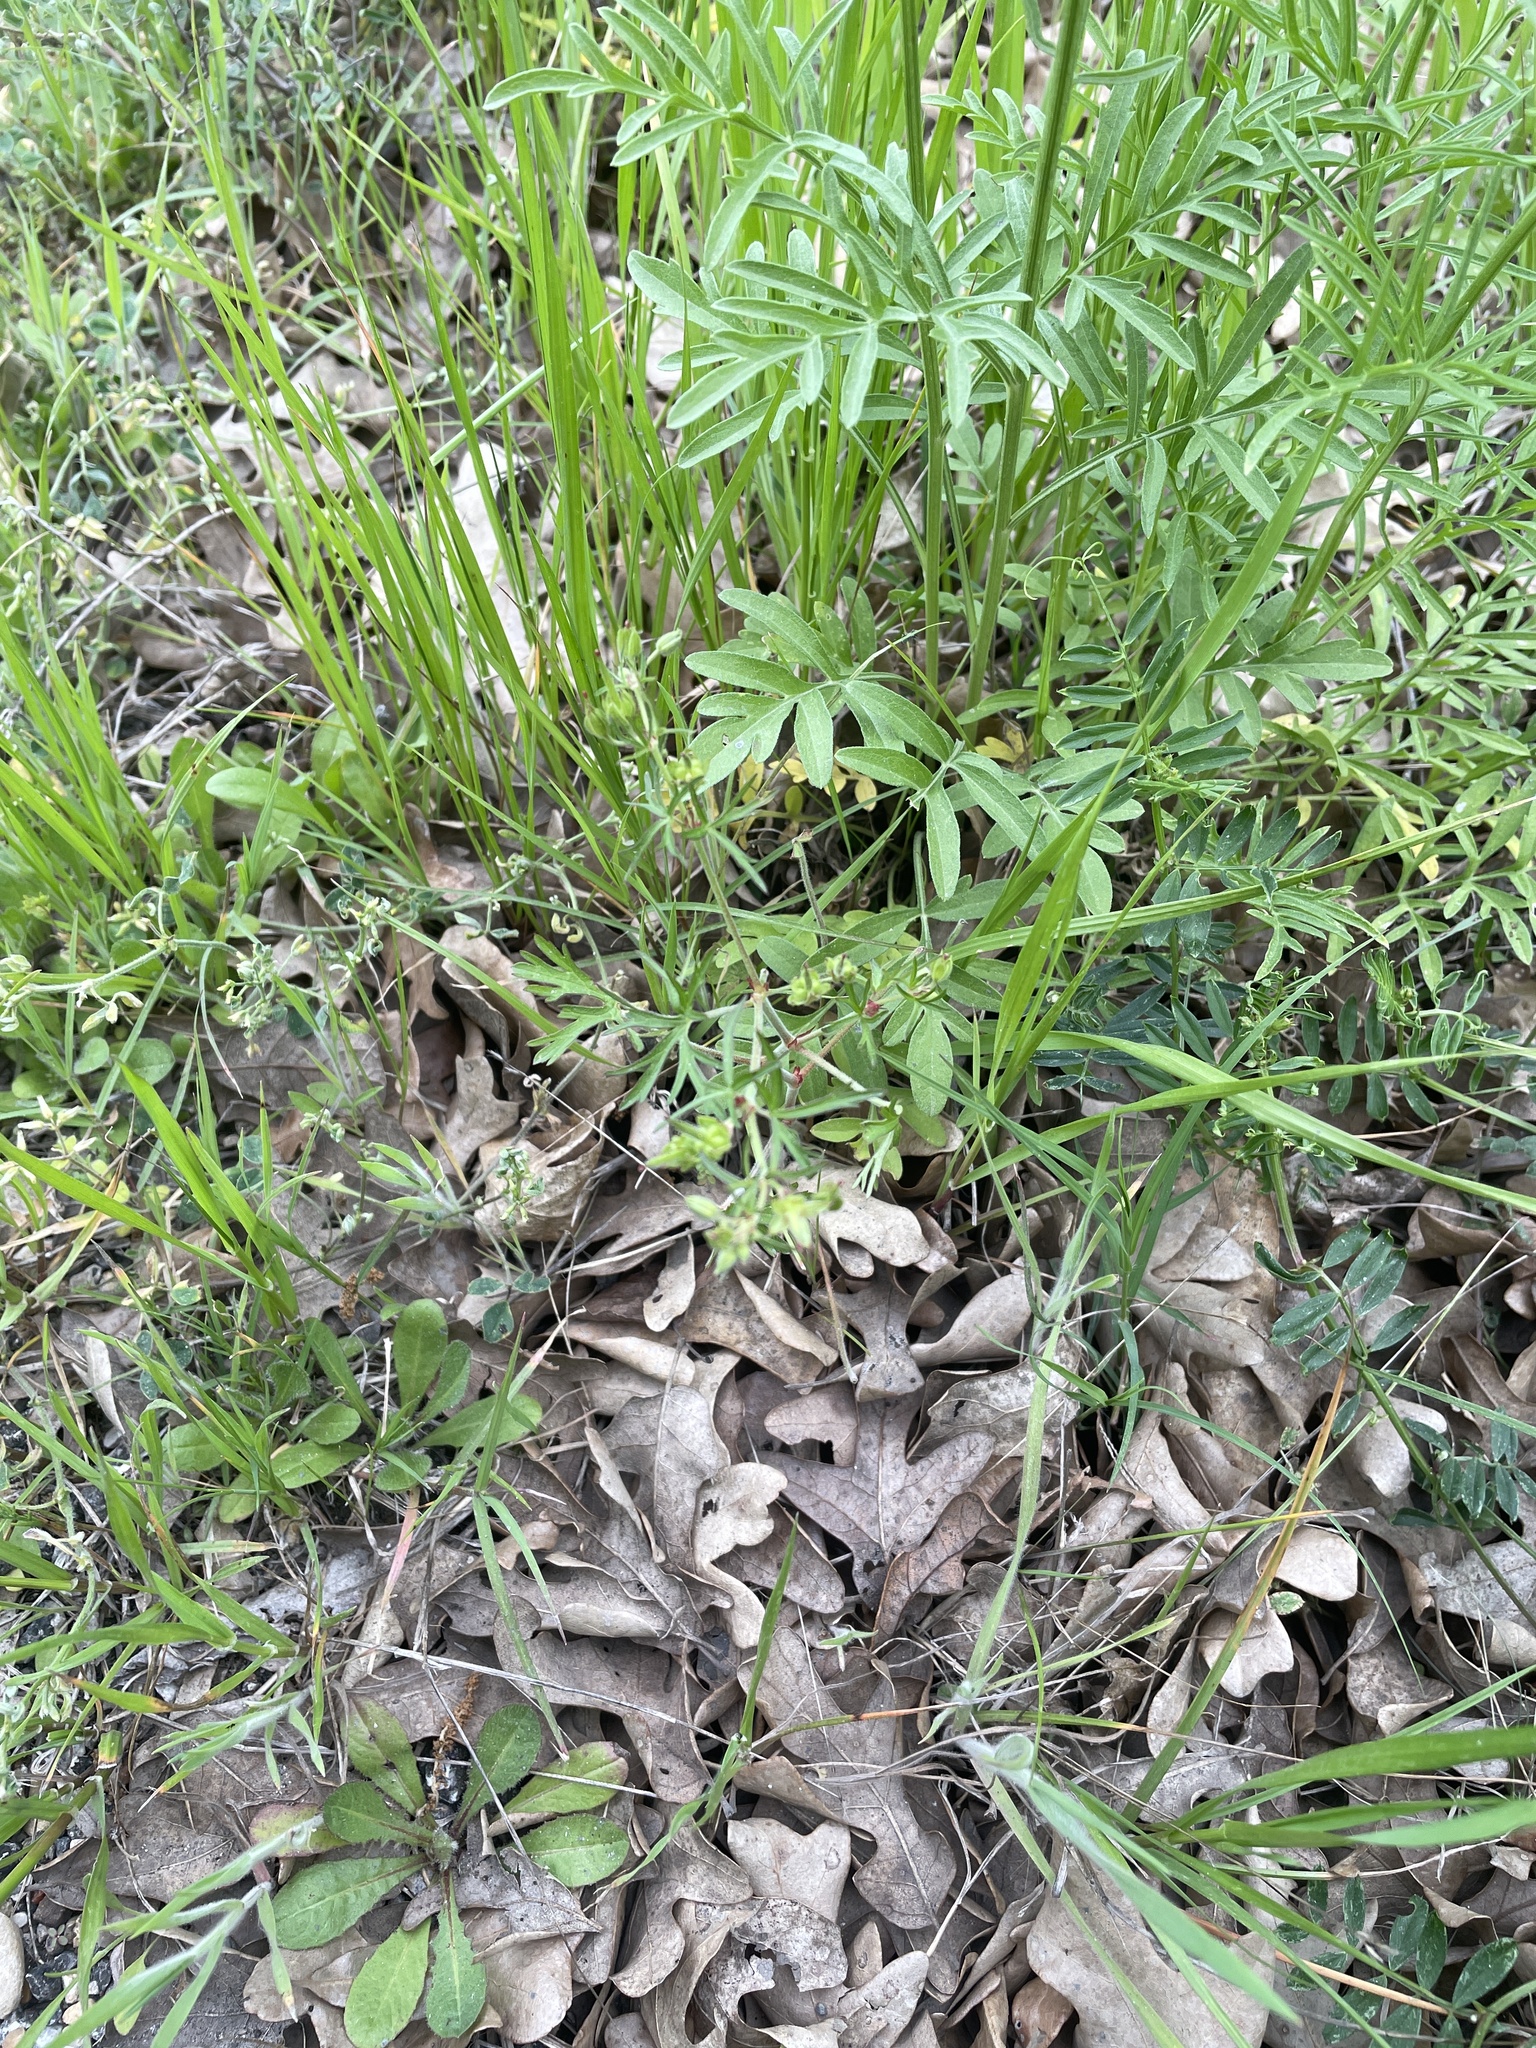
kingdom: Plantae
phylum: Tracheophyta
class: Magnoliopsida
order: Geraniales
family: Geraniaceae
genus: Geranium
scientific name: Geranium dissectum
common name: Cut-leaved crane's-bill
